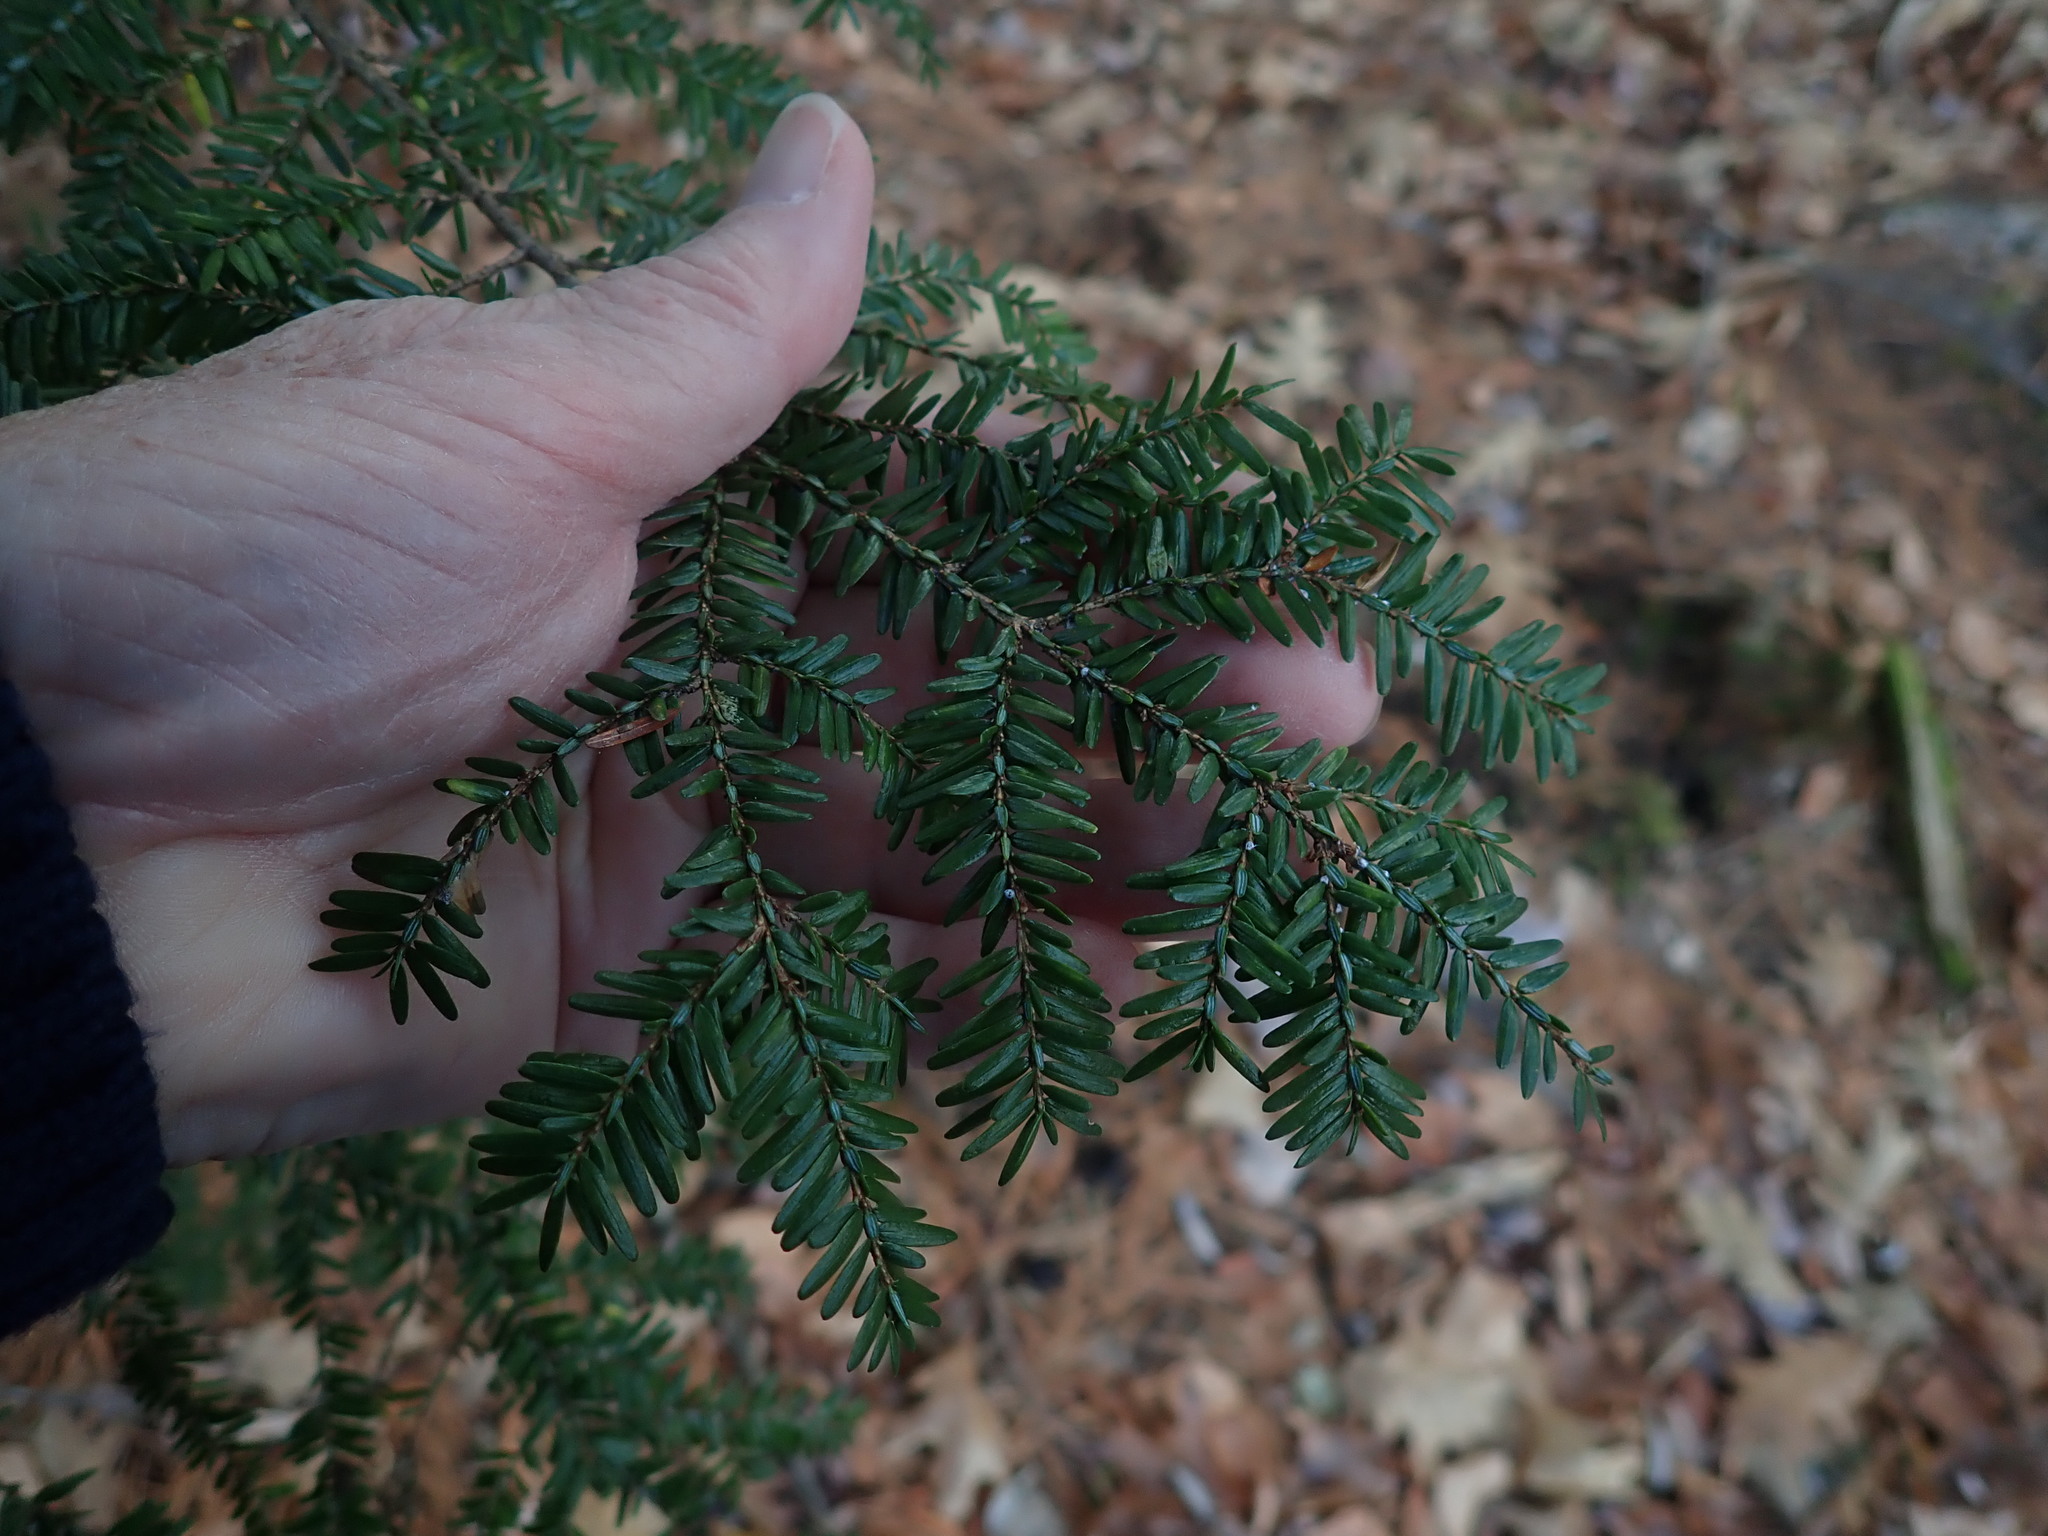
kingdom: Plantae
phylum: Tracheophyta
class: Pinopsida
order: Pinales
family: Pinaceae
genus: Tsuga
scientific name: Tsuga canadensis
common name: Eastern hemlock
